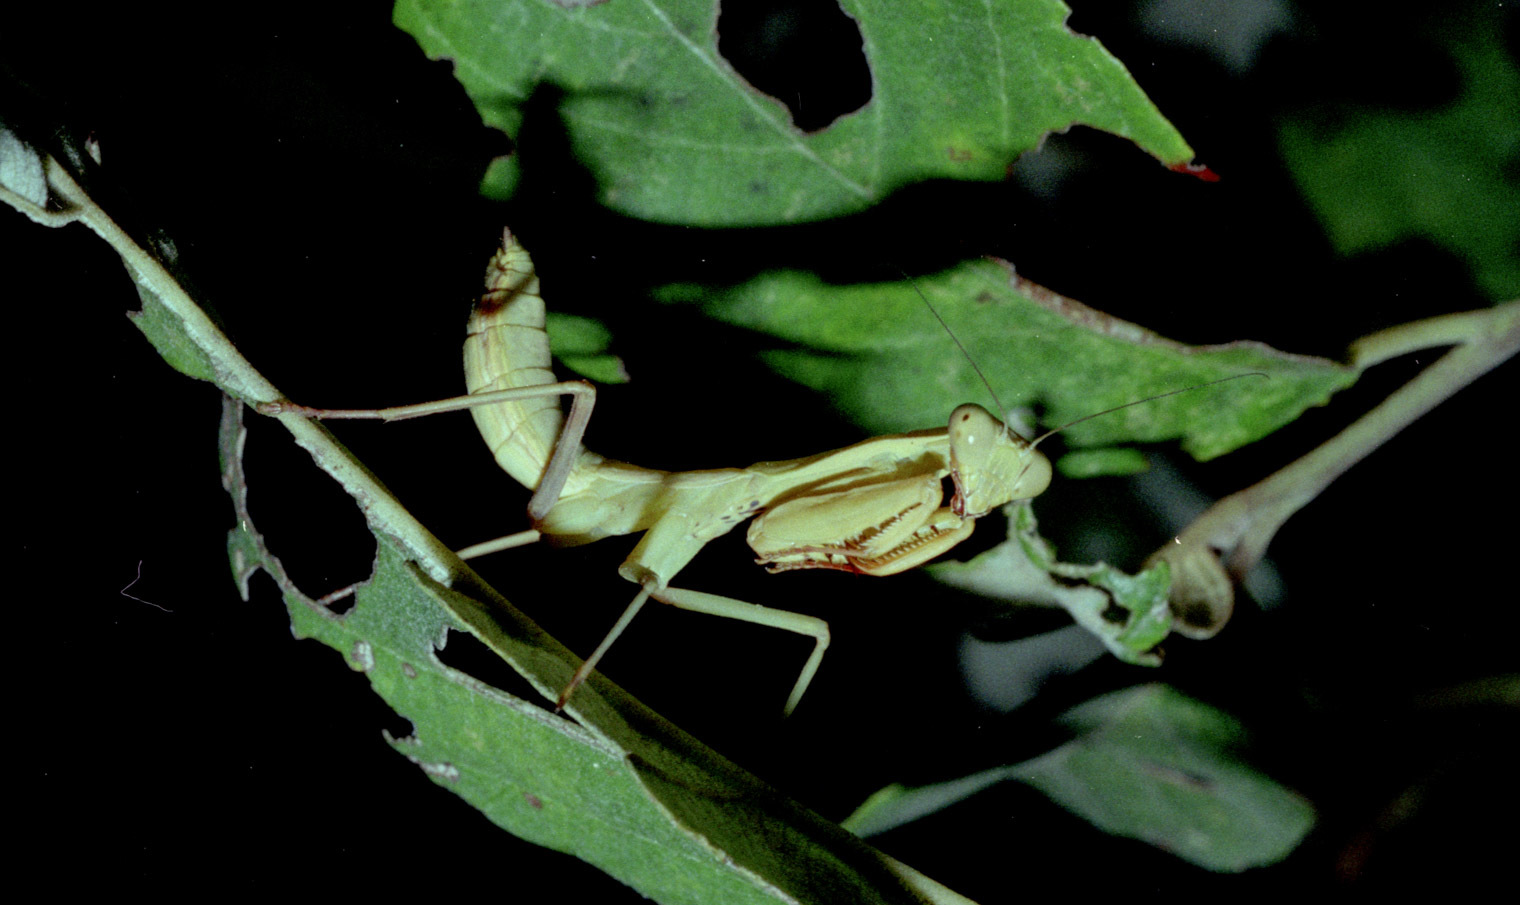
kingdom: Animalia
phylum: Arthropoda
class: Insecta
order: Mantodea
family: Mantidae
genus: Tamolanica
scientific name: Tamolanica atricoxis
